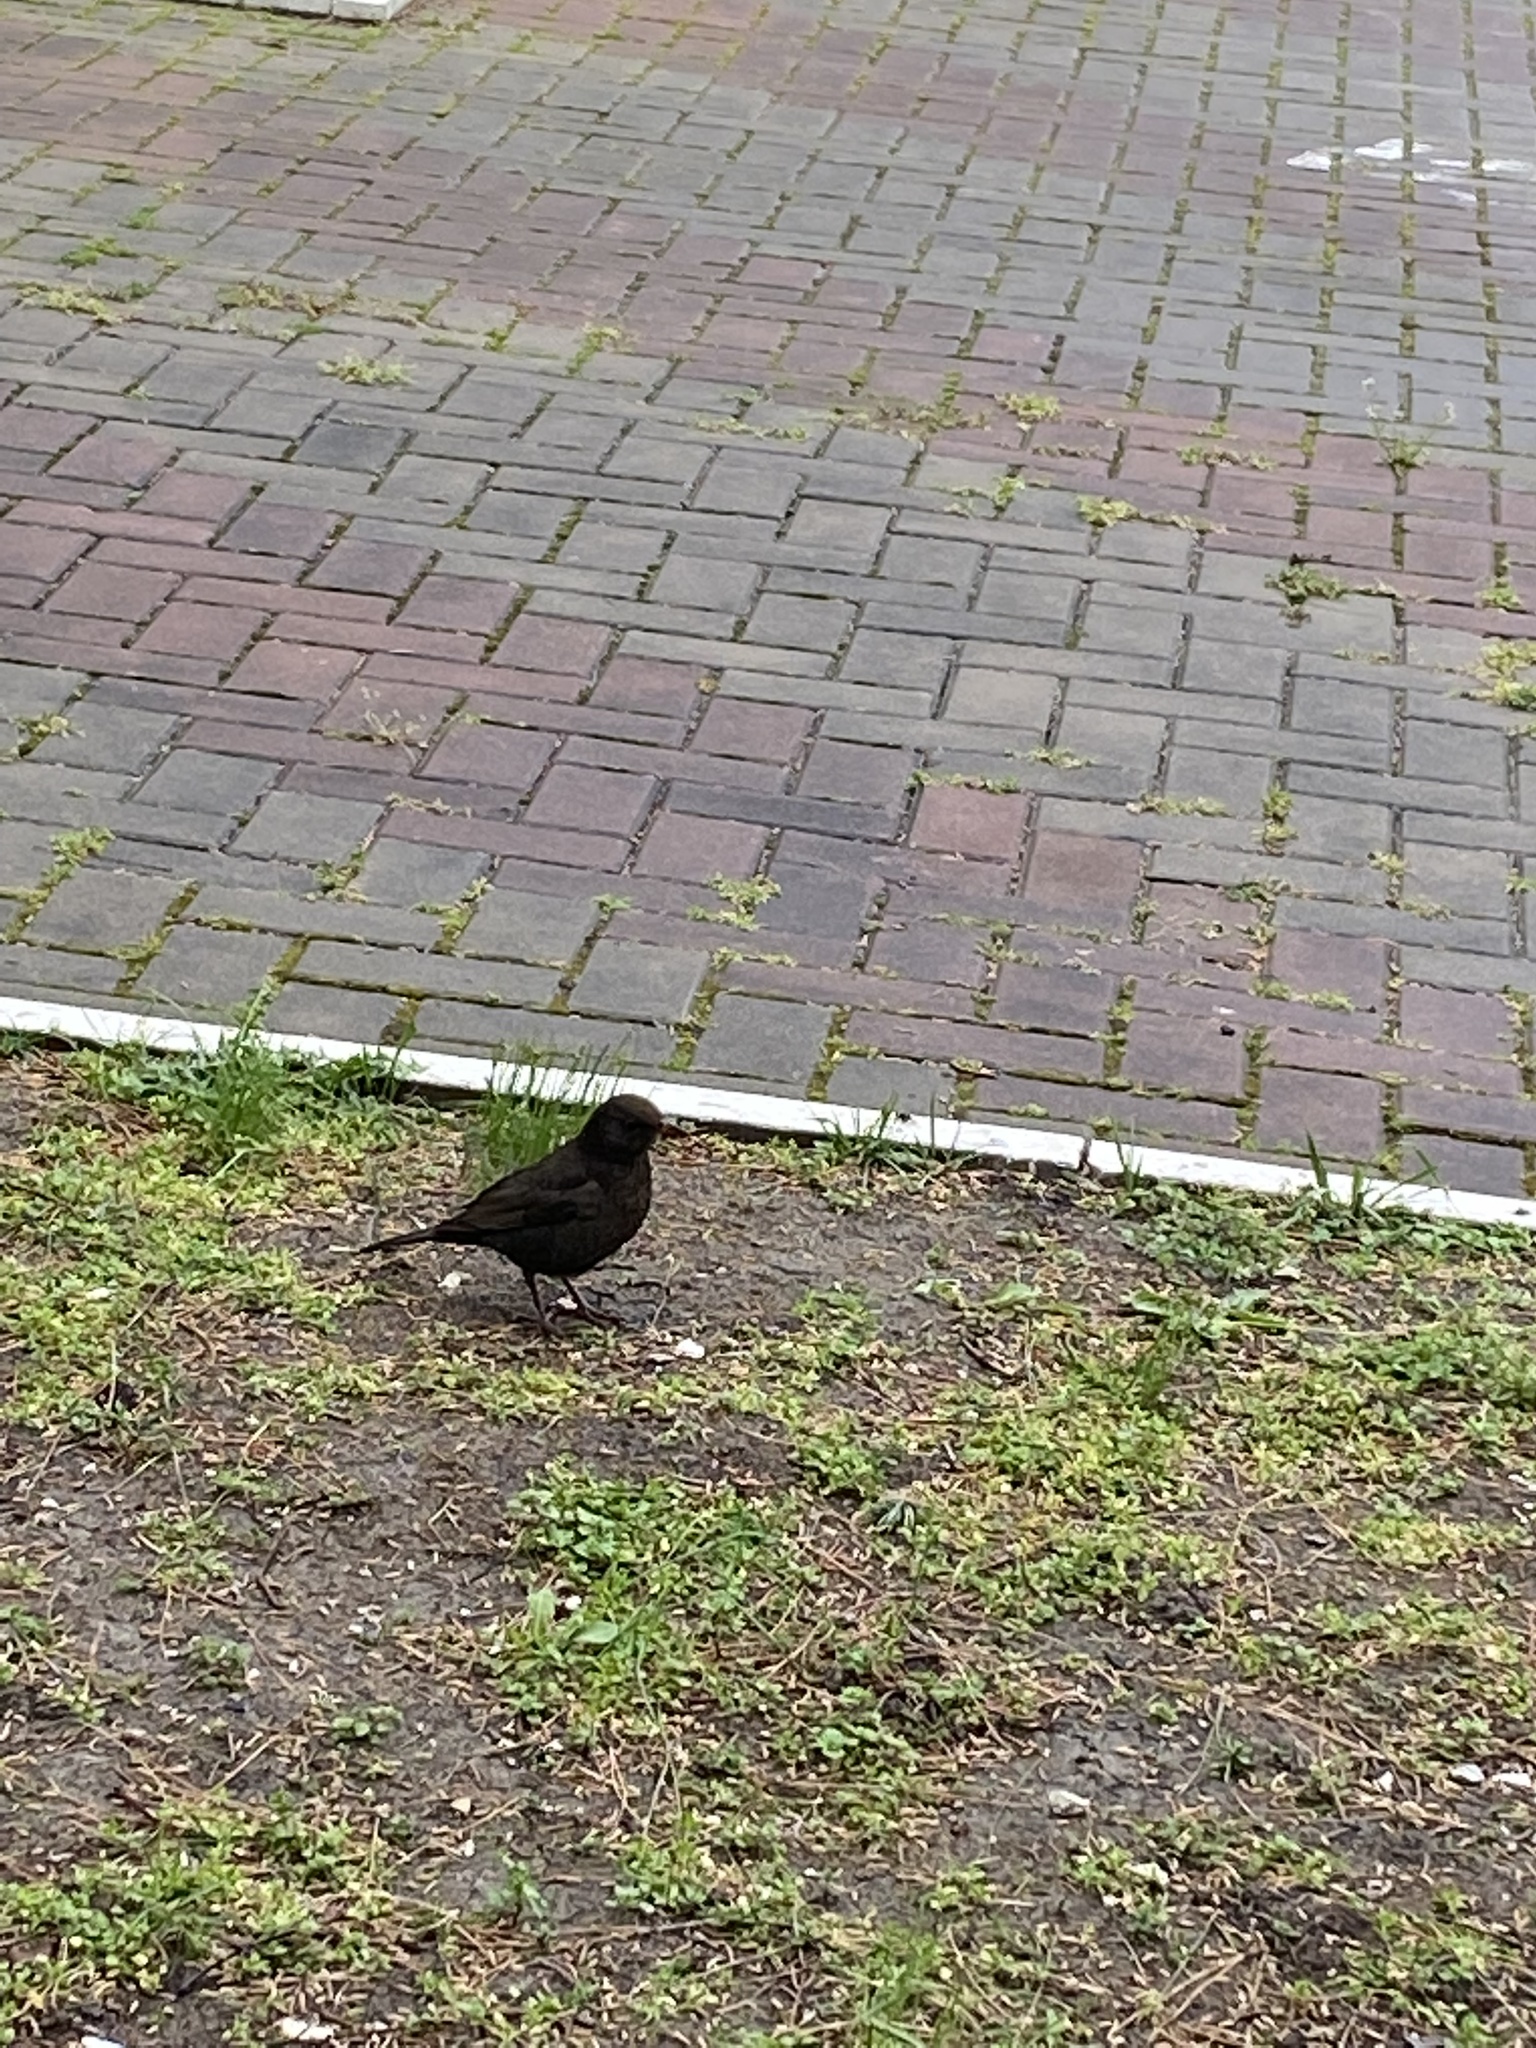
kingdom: Animalia
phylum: Chordata
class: Aves
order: Passeriformes
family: Turdidae
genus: Turdus
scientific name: Turdus merula
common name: Common blackbird
